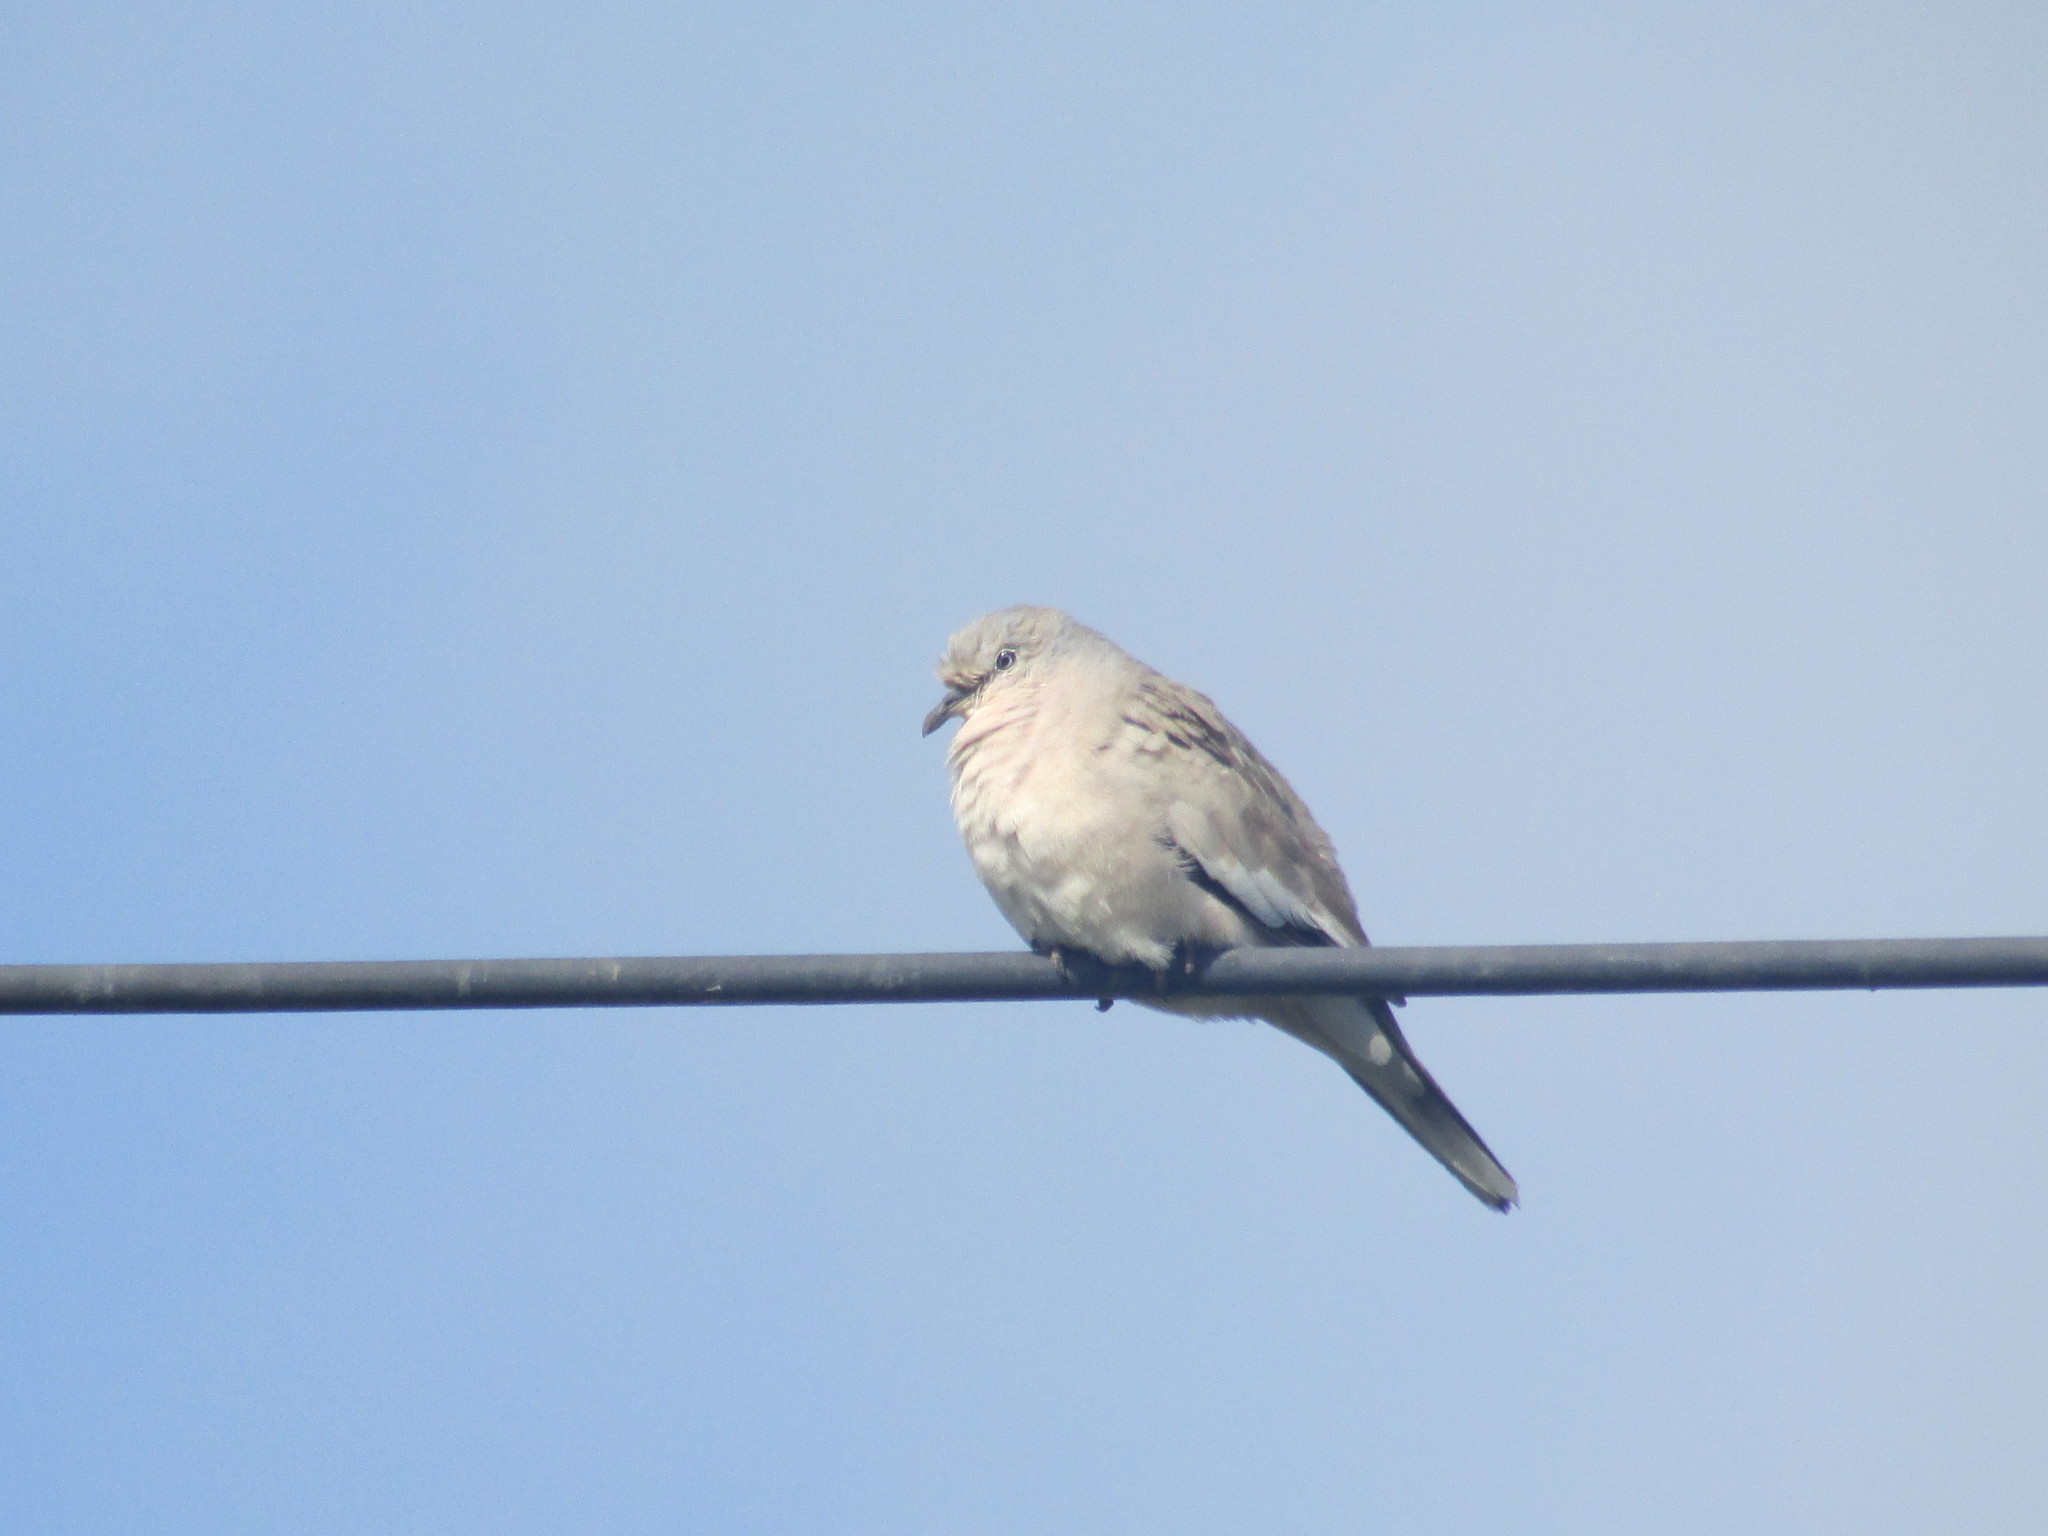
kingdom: Animalia
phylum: Chordata
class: Aves
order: Columbiformes
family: Columbidae
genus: Columbina
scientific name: Columbina picui
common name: Picui ground dove
